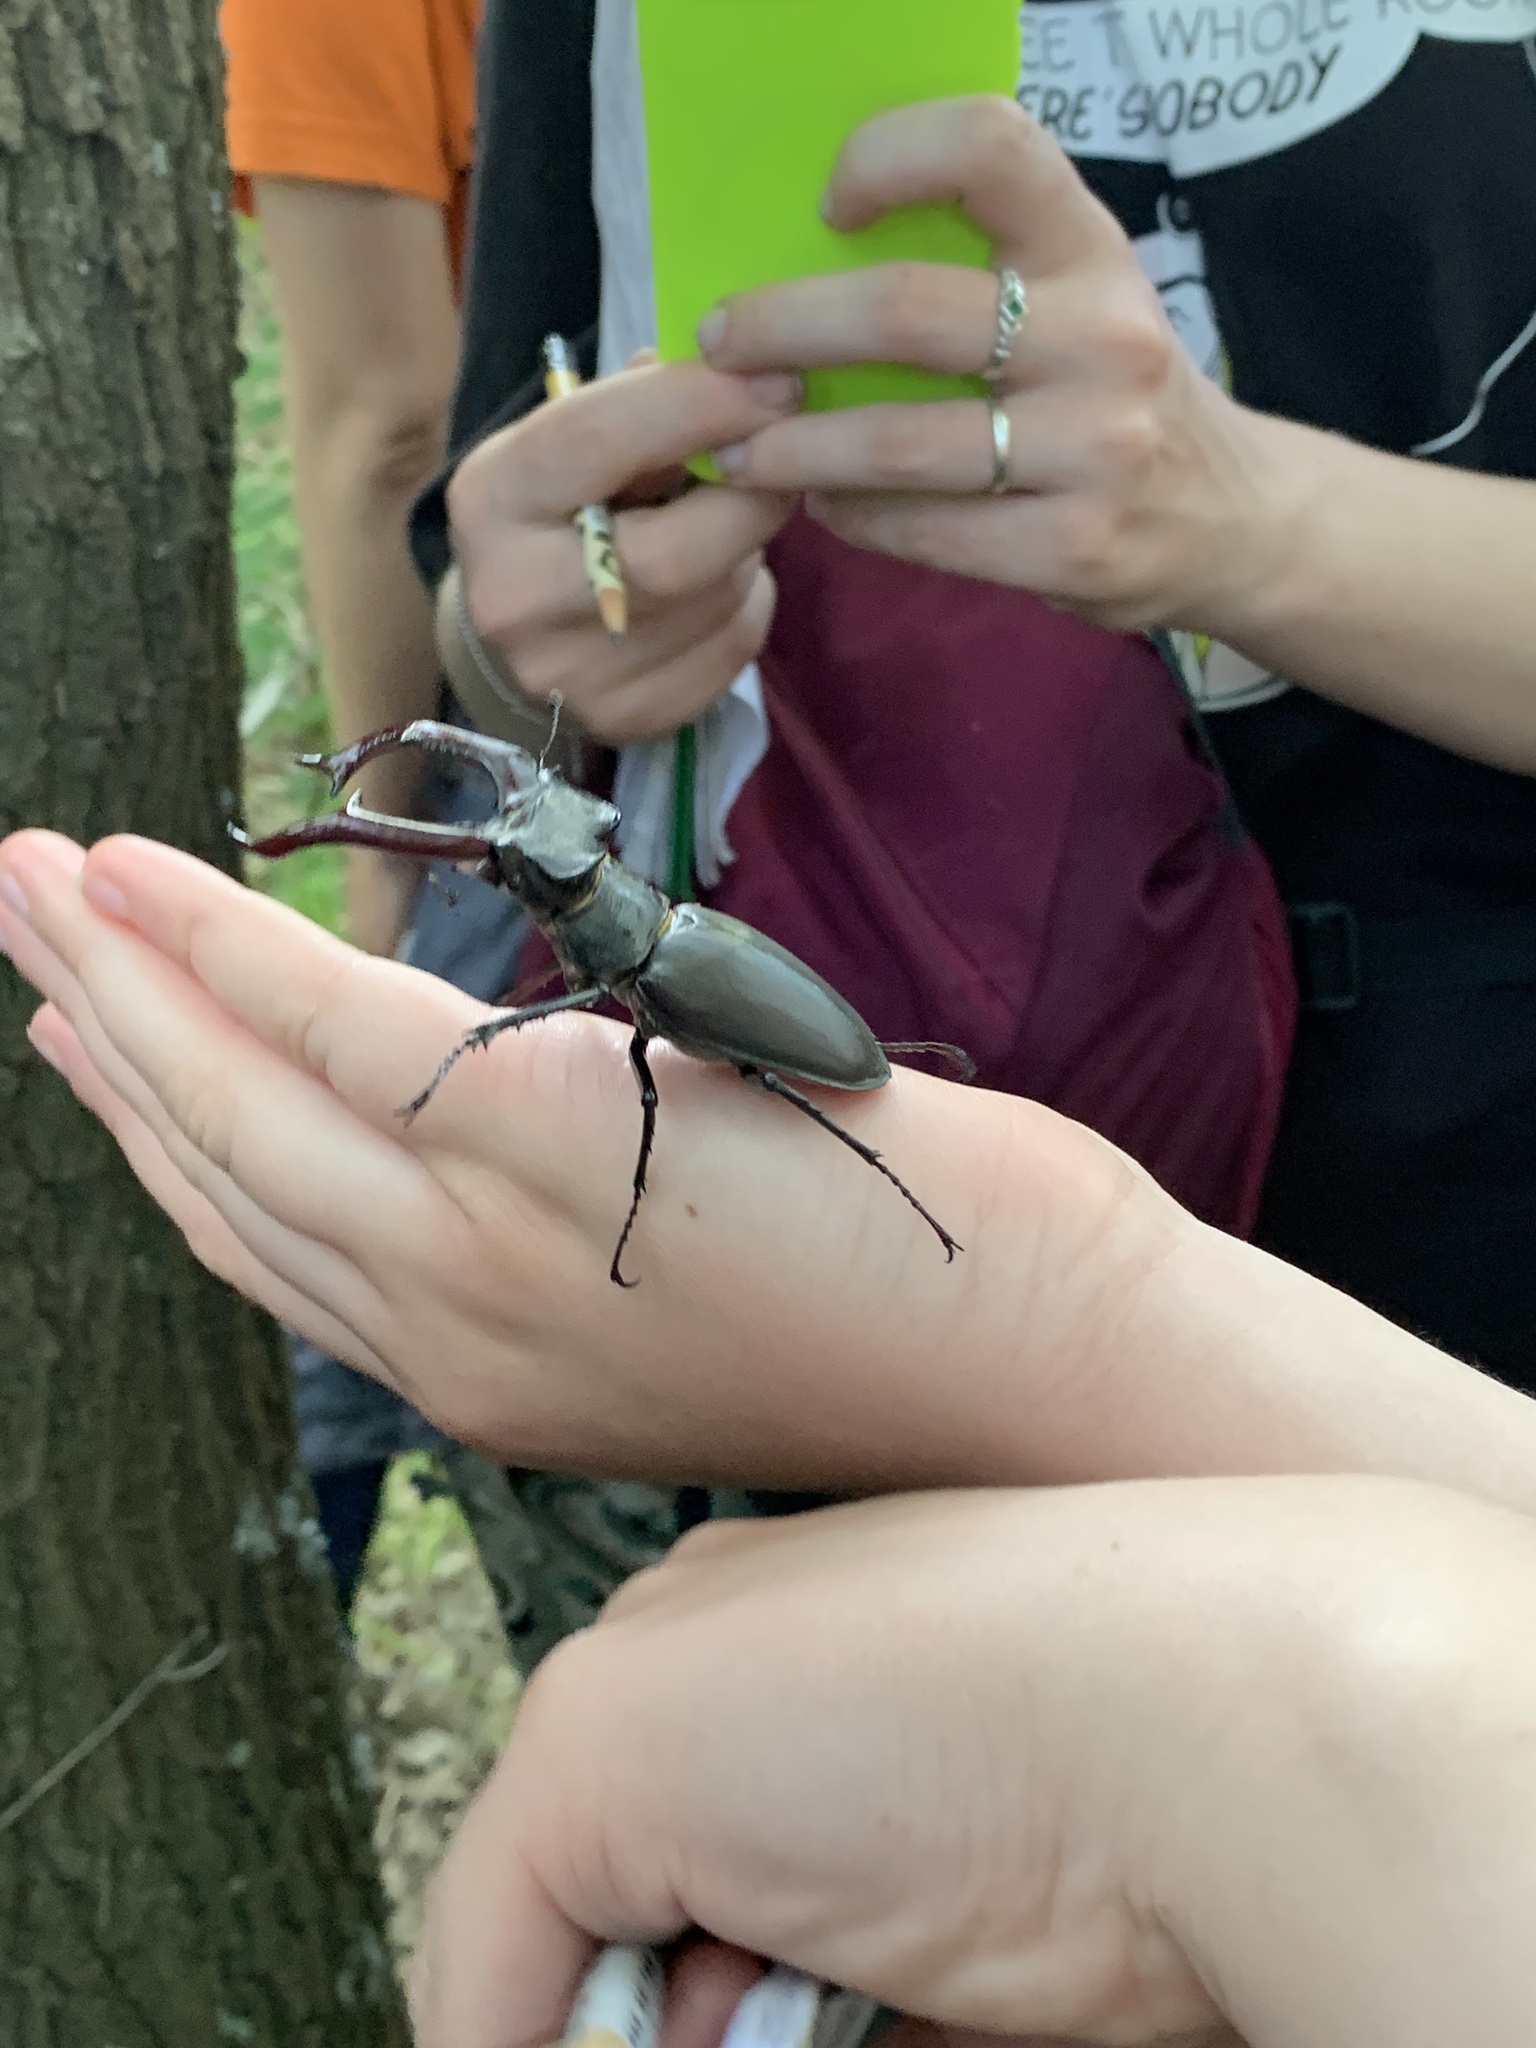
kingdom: Animalia
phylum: Arthropoda
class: Insecta
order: Coleoptera
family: Lucanidae
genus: Lucanus
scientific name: Lucanus cervus
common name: Stag beetle
